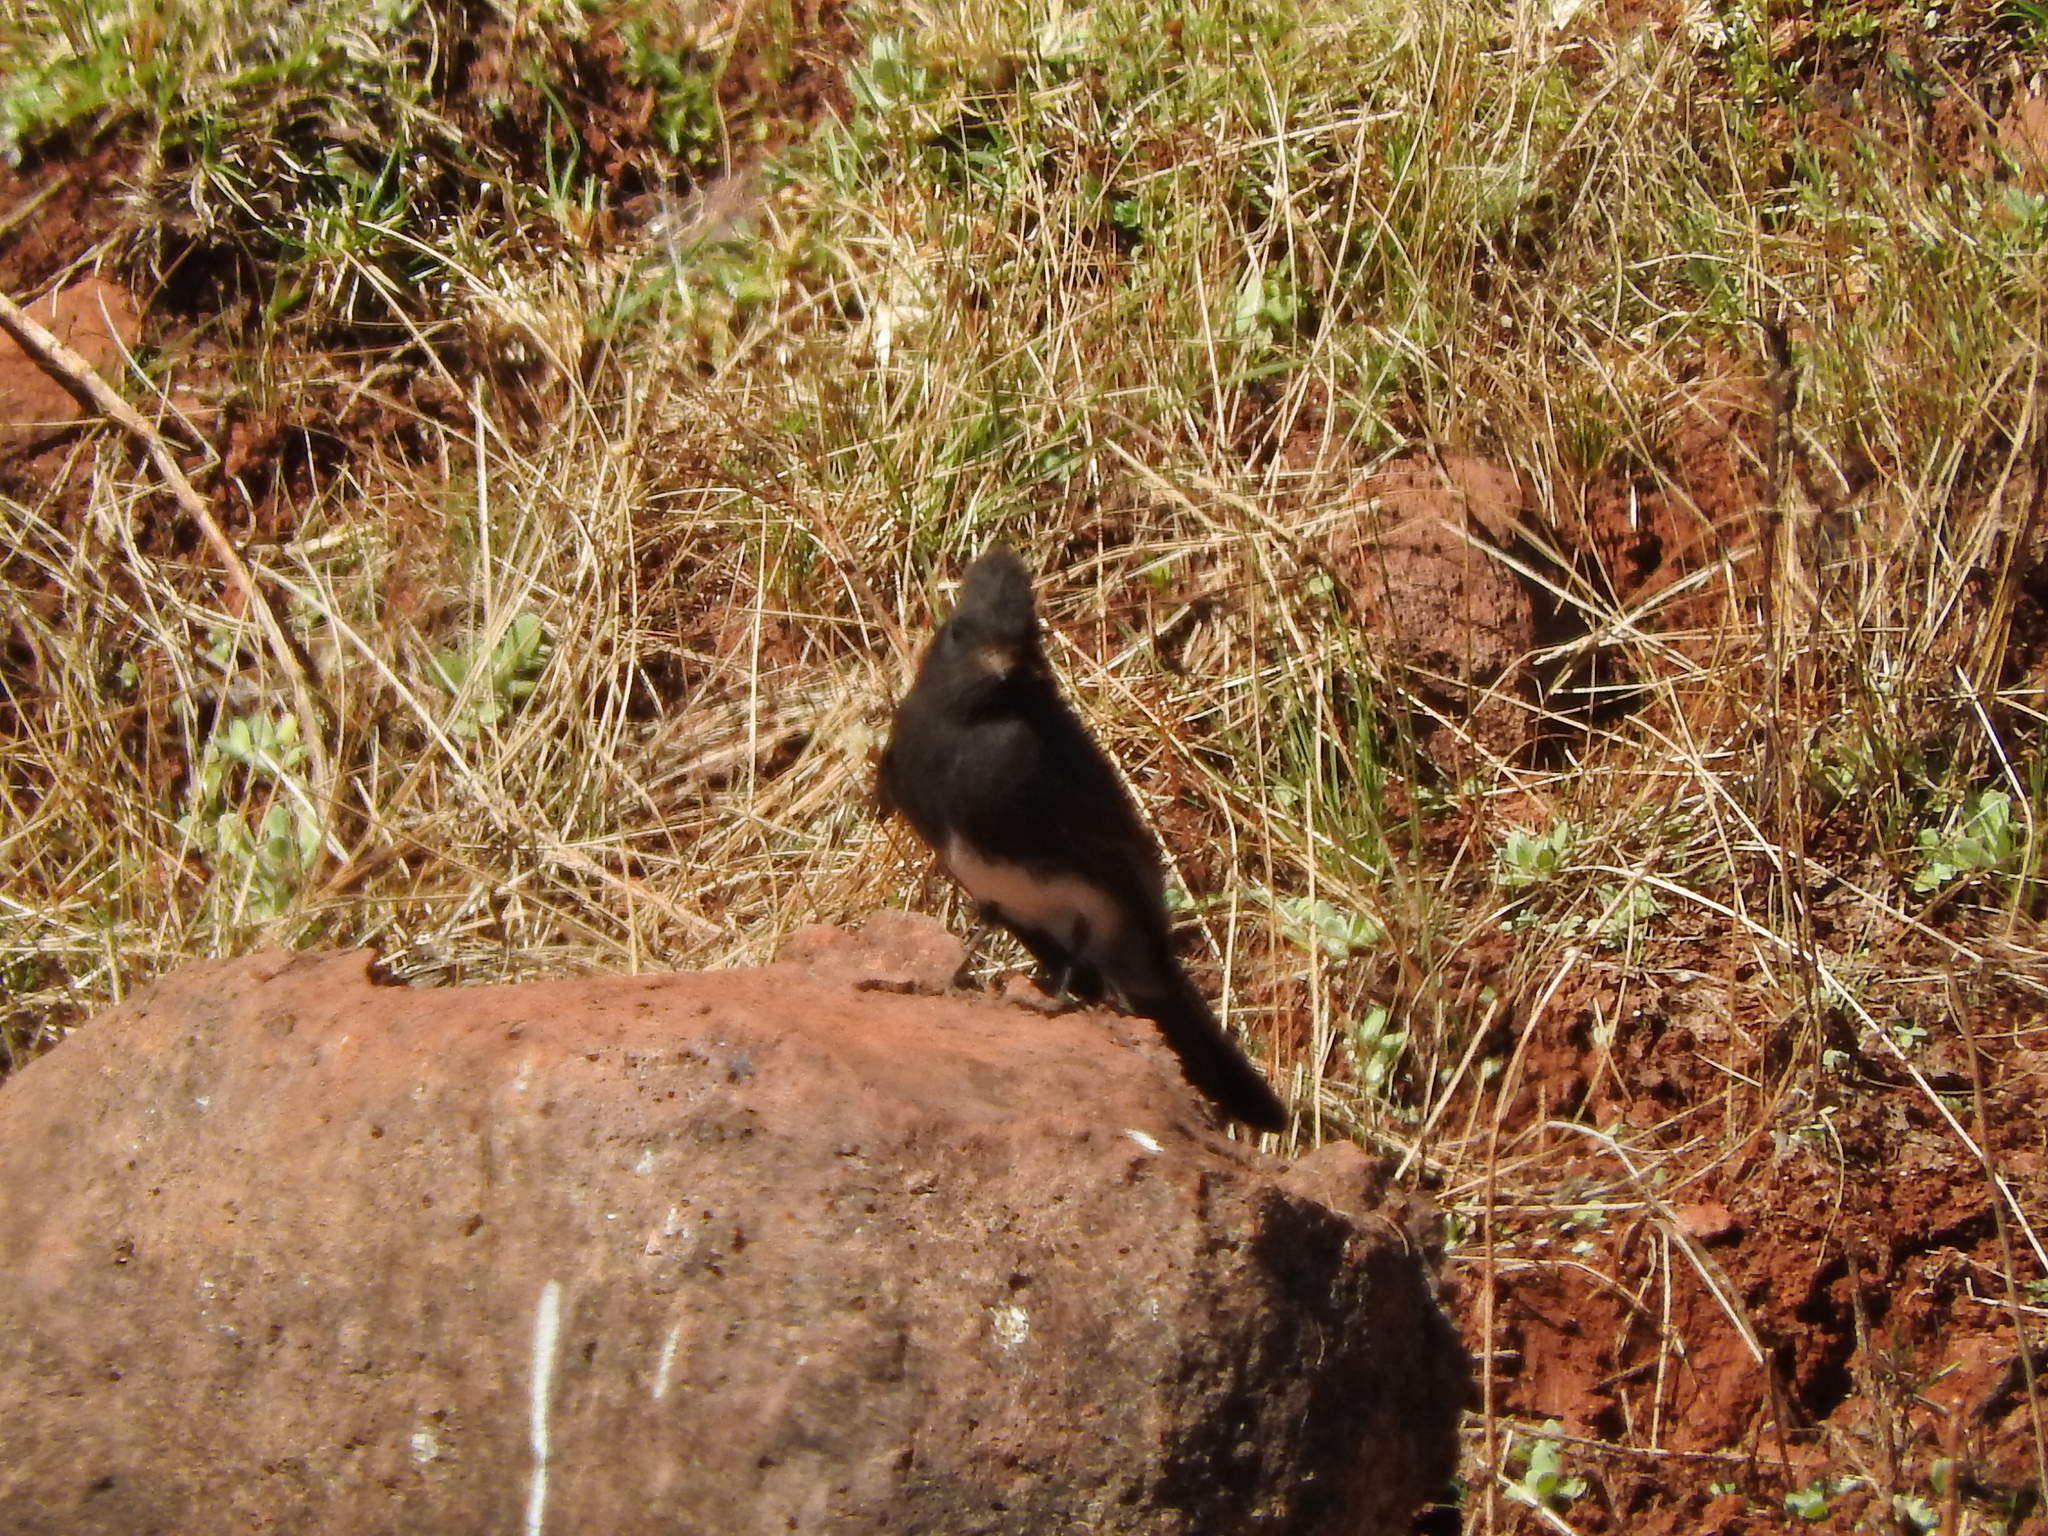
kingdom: Animalia
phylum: Chordata
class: Aves
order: Passeriformes
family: Tyrannidae
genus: Sayornis
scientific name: Sayornis nigricans
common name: Black phoebe
